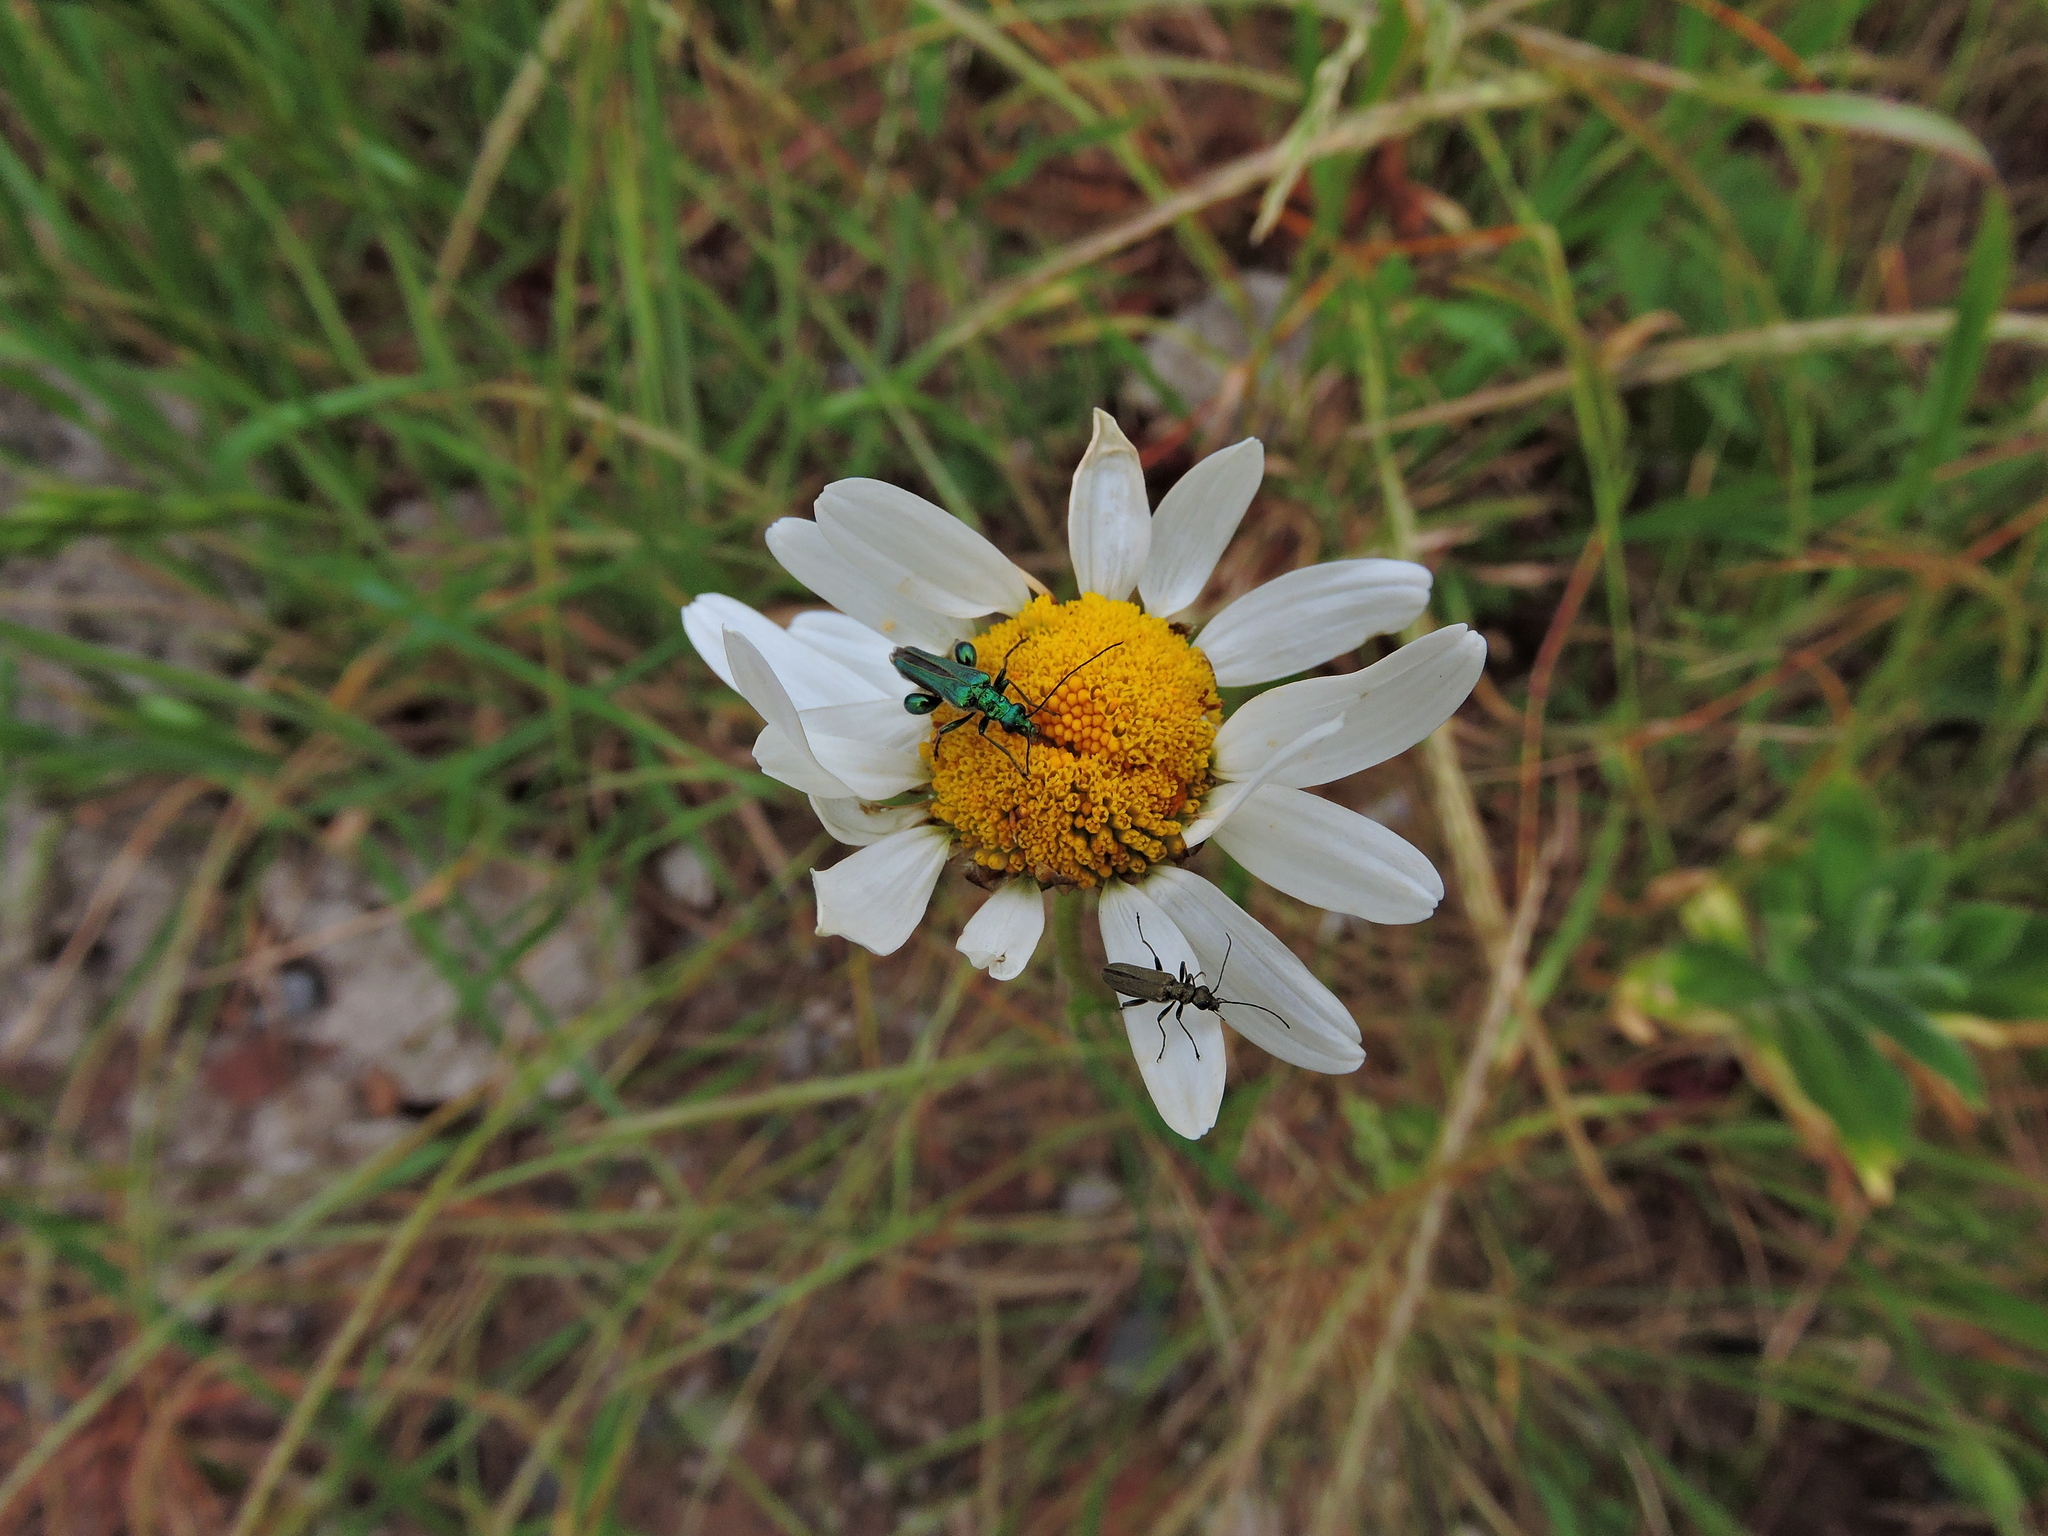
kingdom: Animalia
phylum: Arthropoda
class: Insecta
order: Coleoptera
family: Oedemeridae
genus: Oedemera
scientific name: Oedemera nobilis
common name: Swollen-thighed beetle
